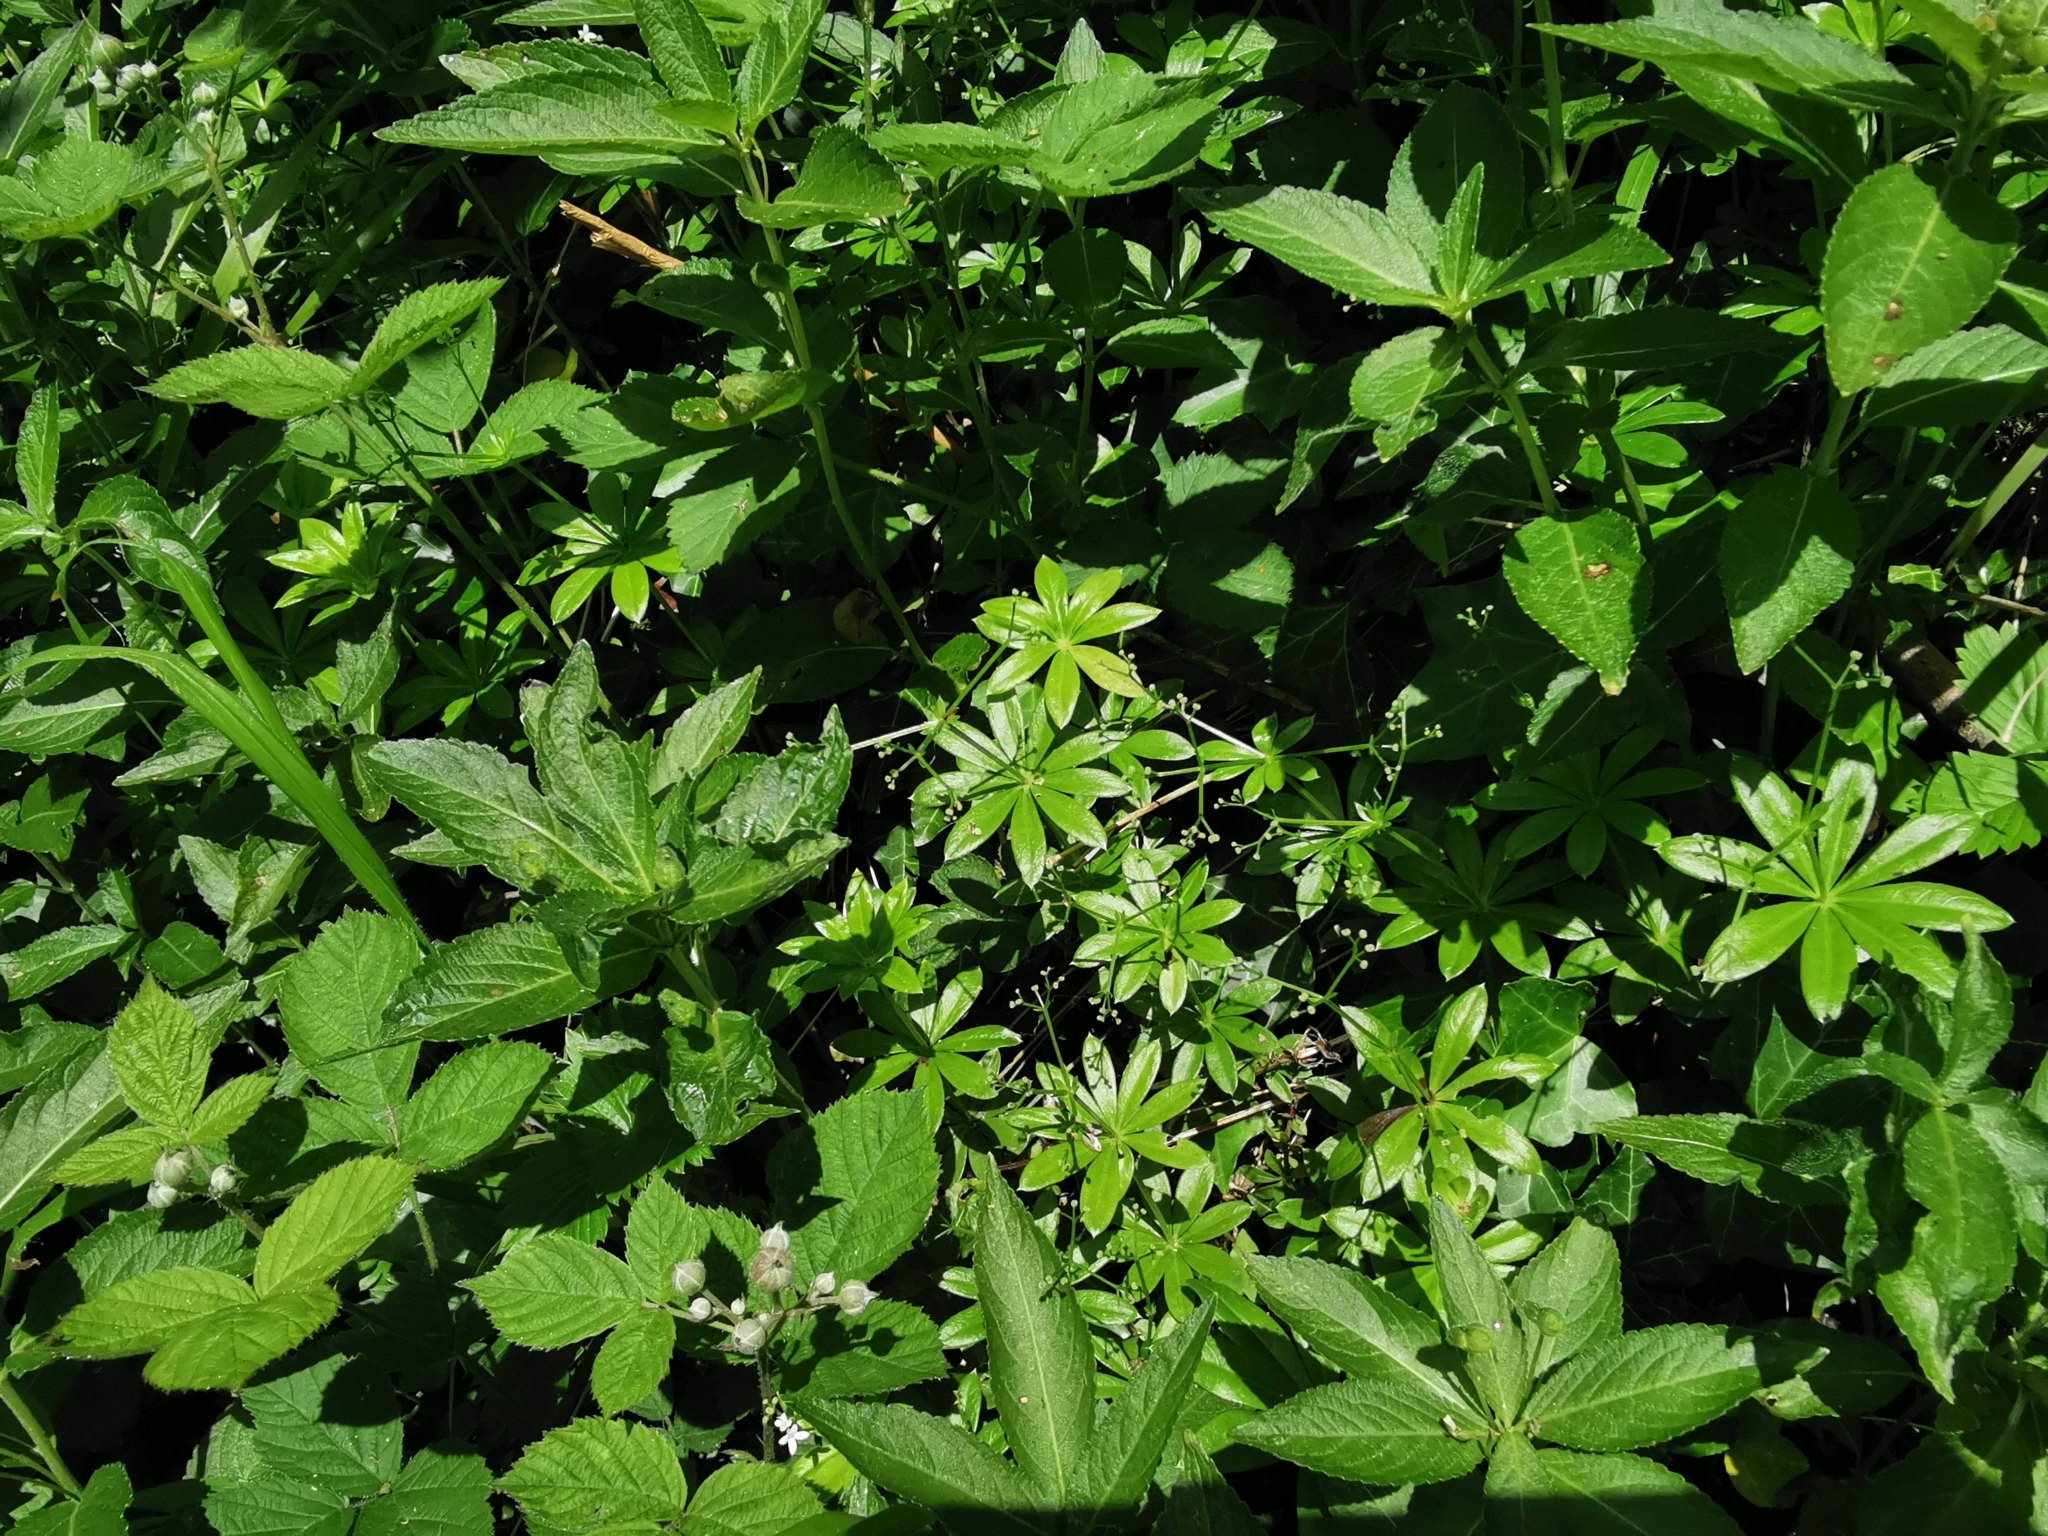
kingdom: Plantae
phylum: Tracheophyta
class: Magnoliopsida
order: Gentianales
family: Rubiaceae
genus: Galium
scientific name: Galium odoratum
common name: Sweet woodruff
